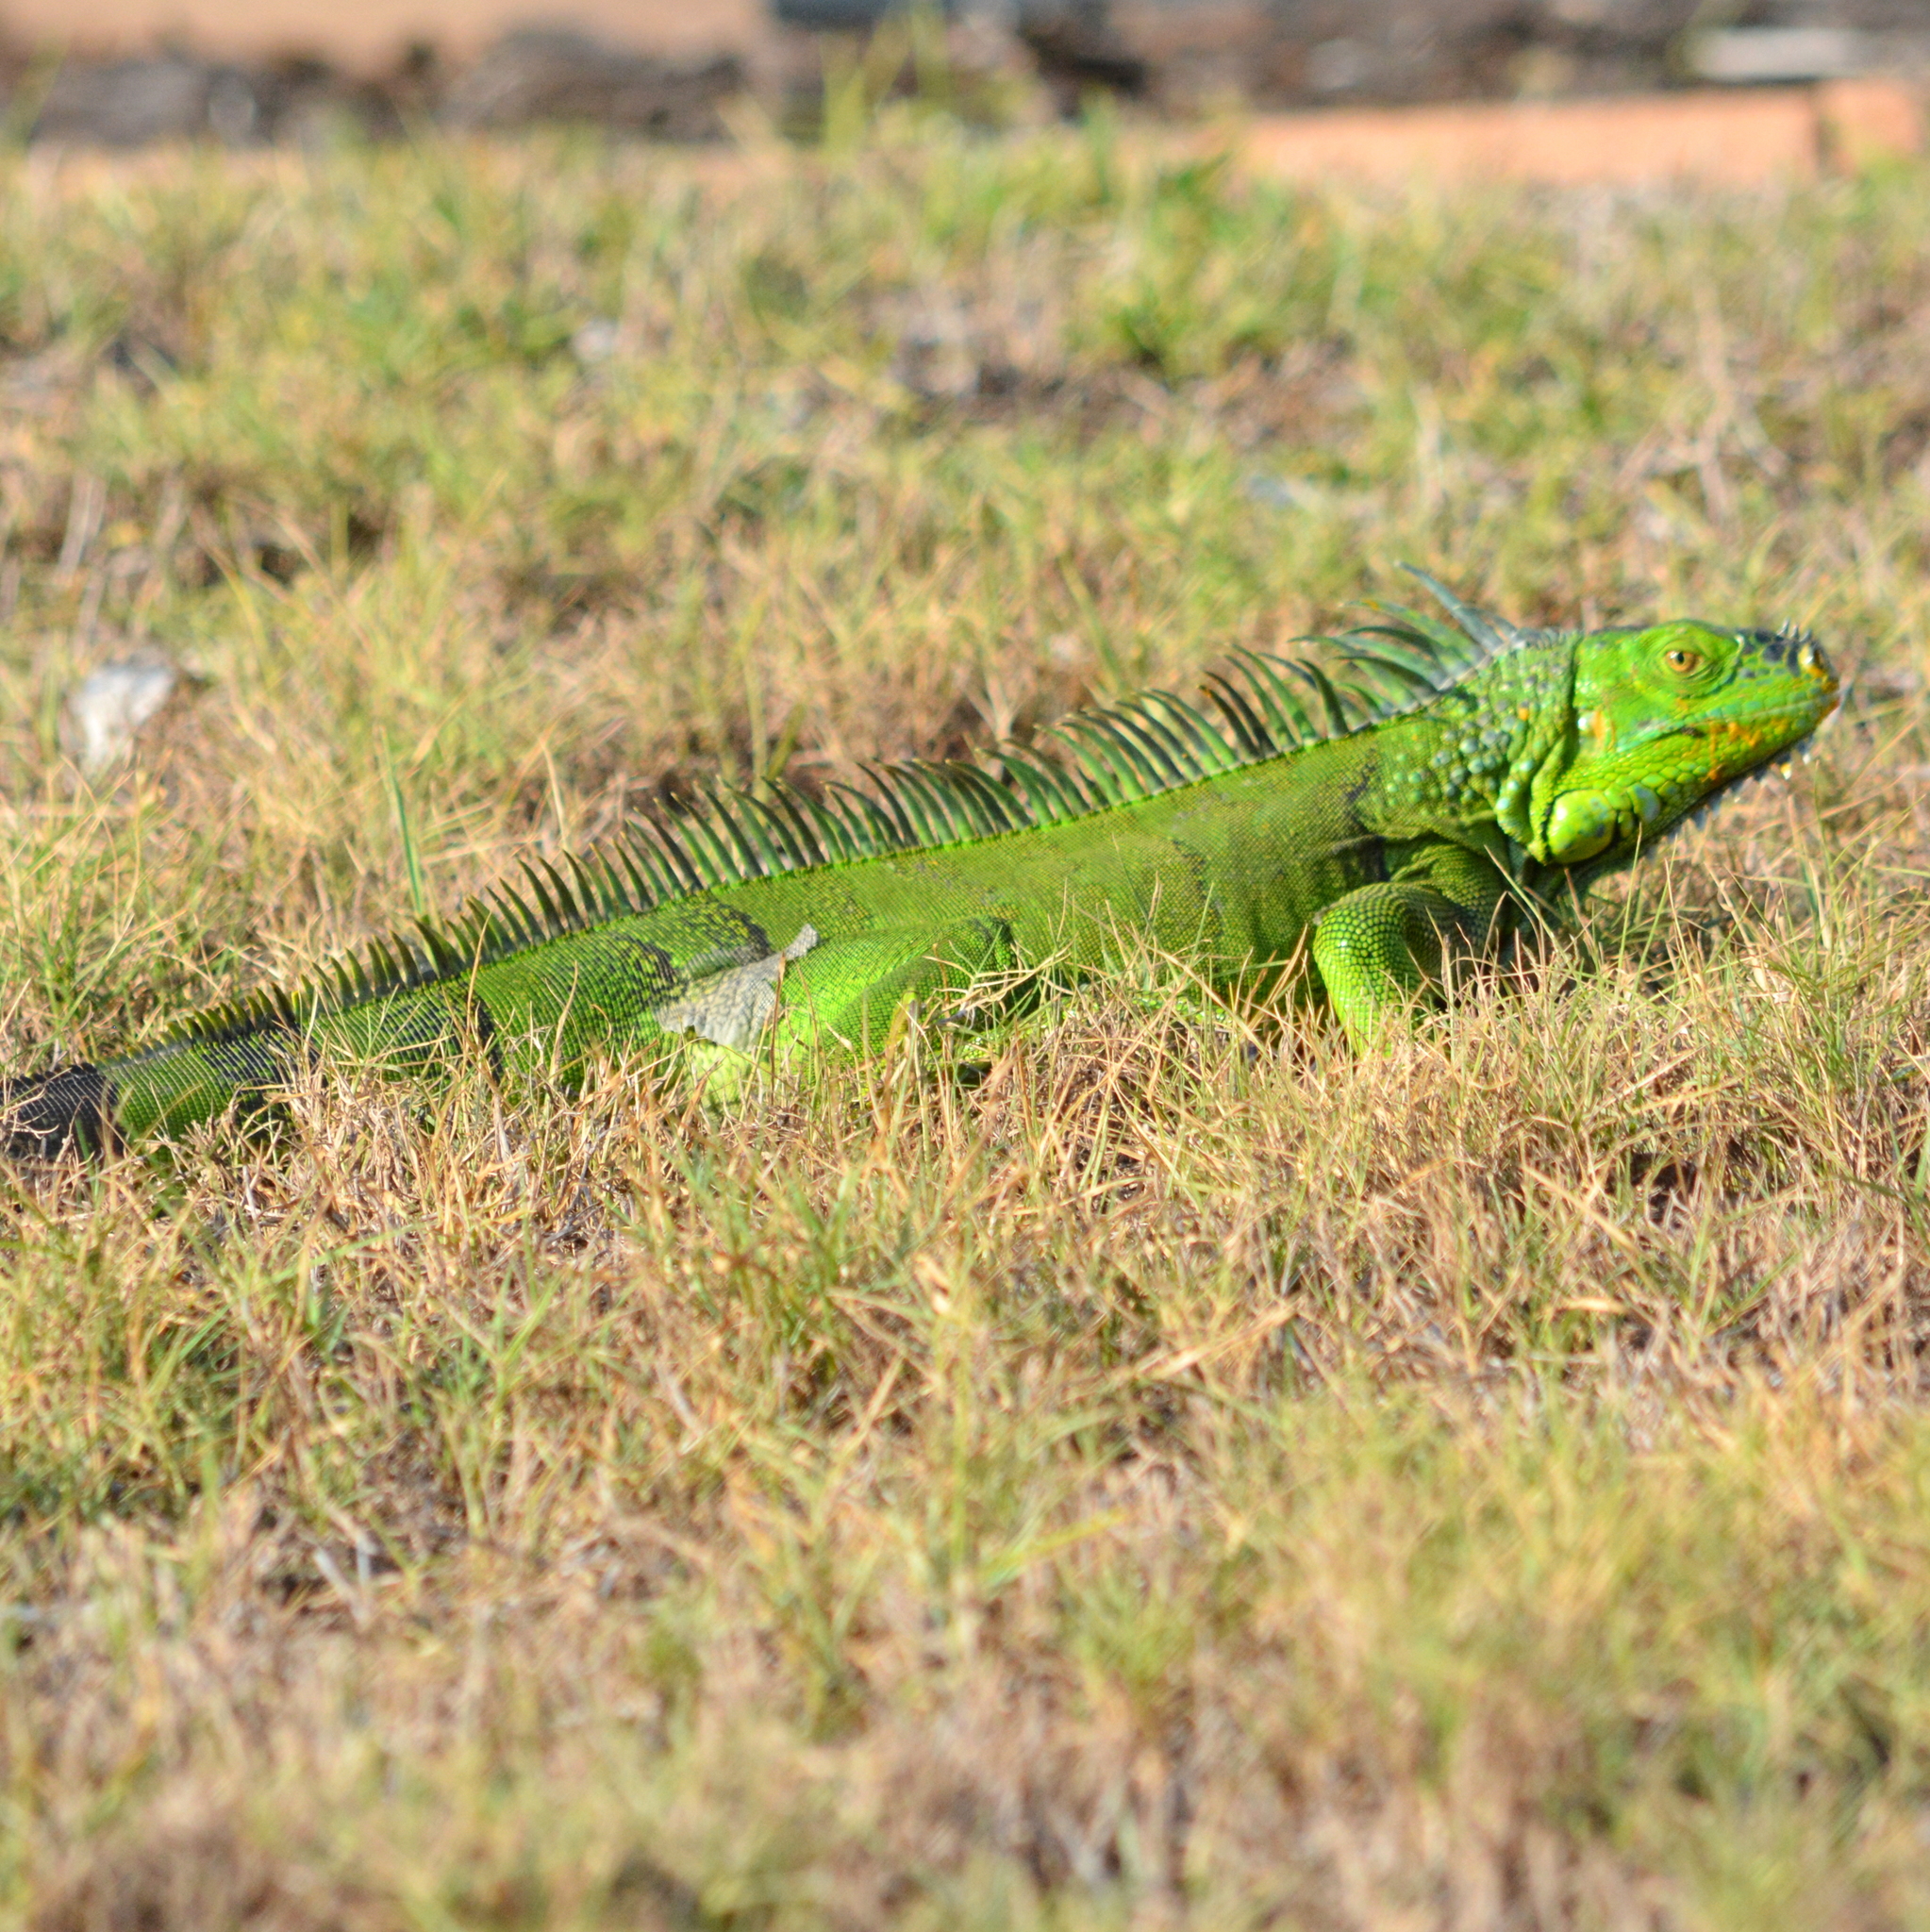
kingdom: Animalia
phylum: Chordata
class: Squamata
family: Iguanidae
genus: Iguana
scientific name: Iguana iguana
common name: Green iguana
